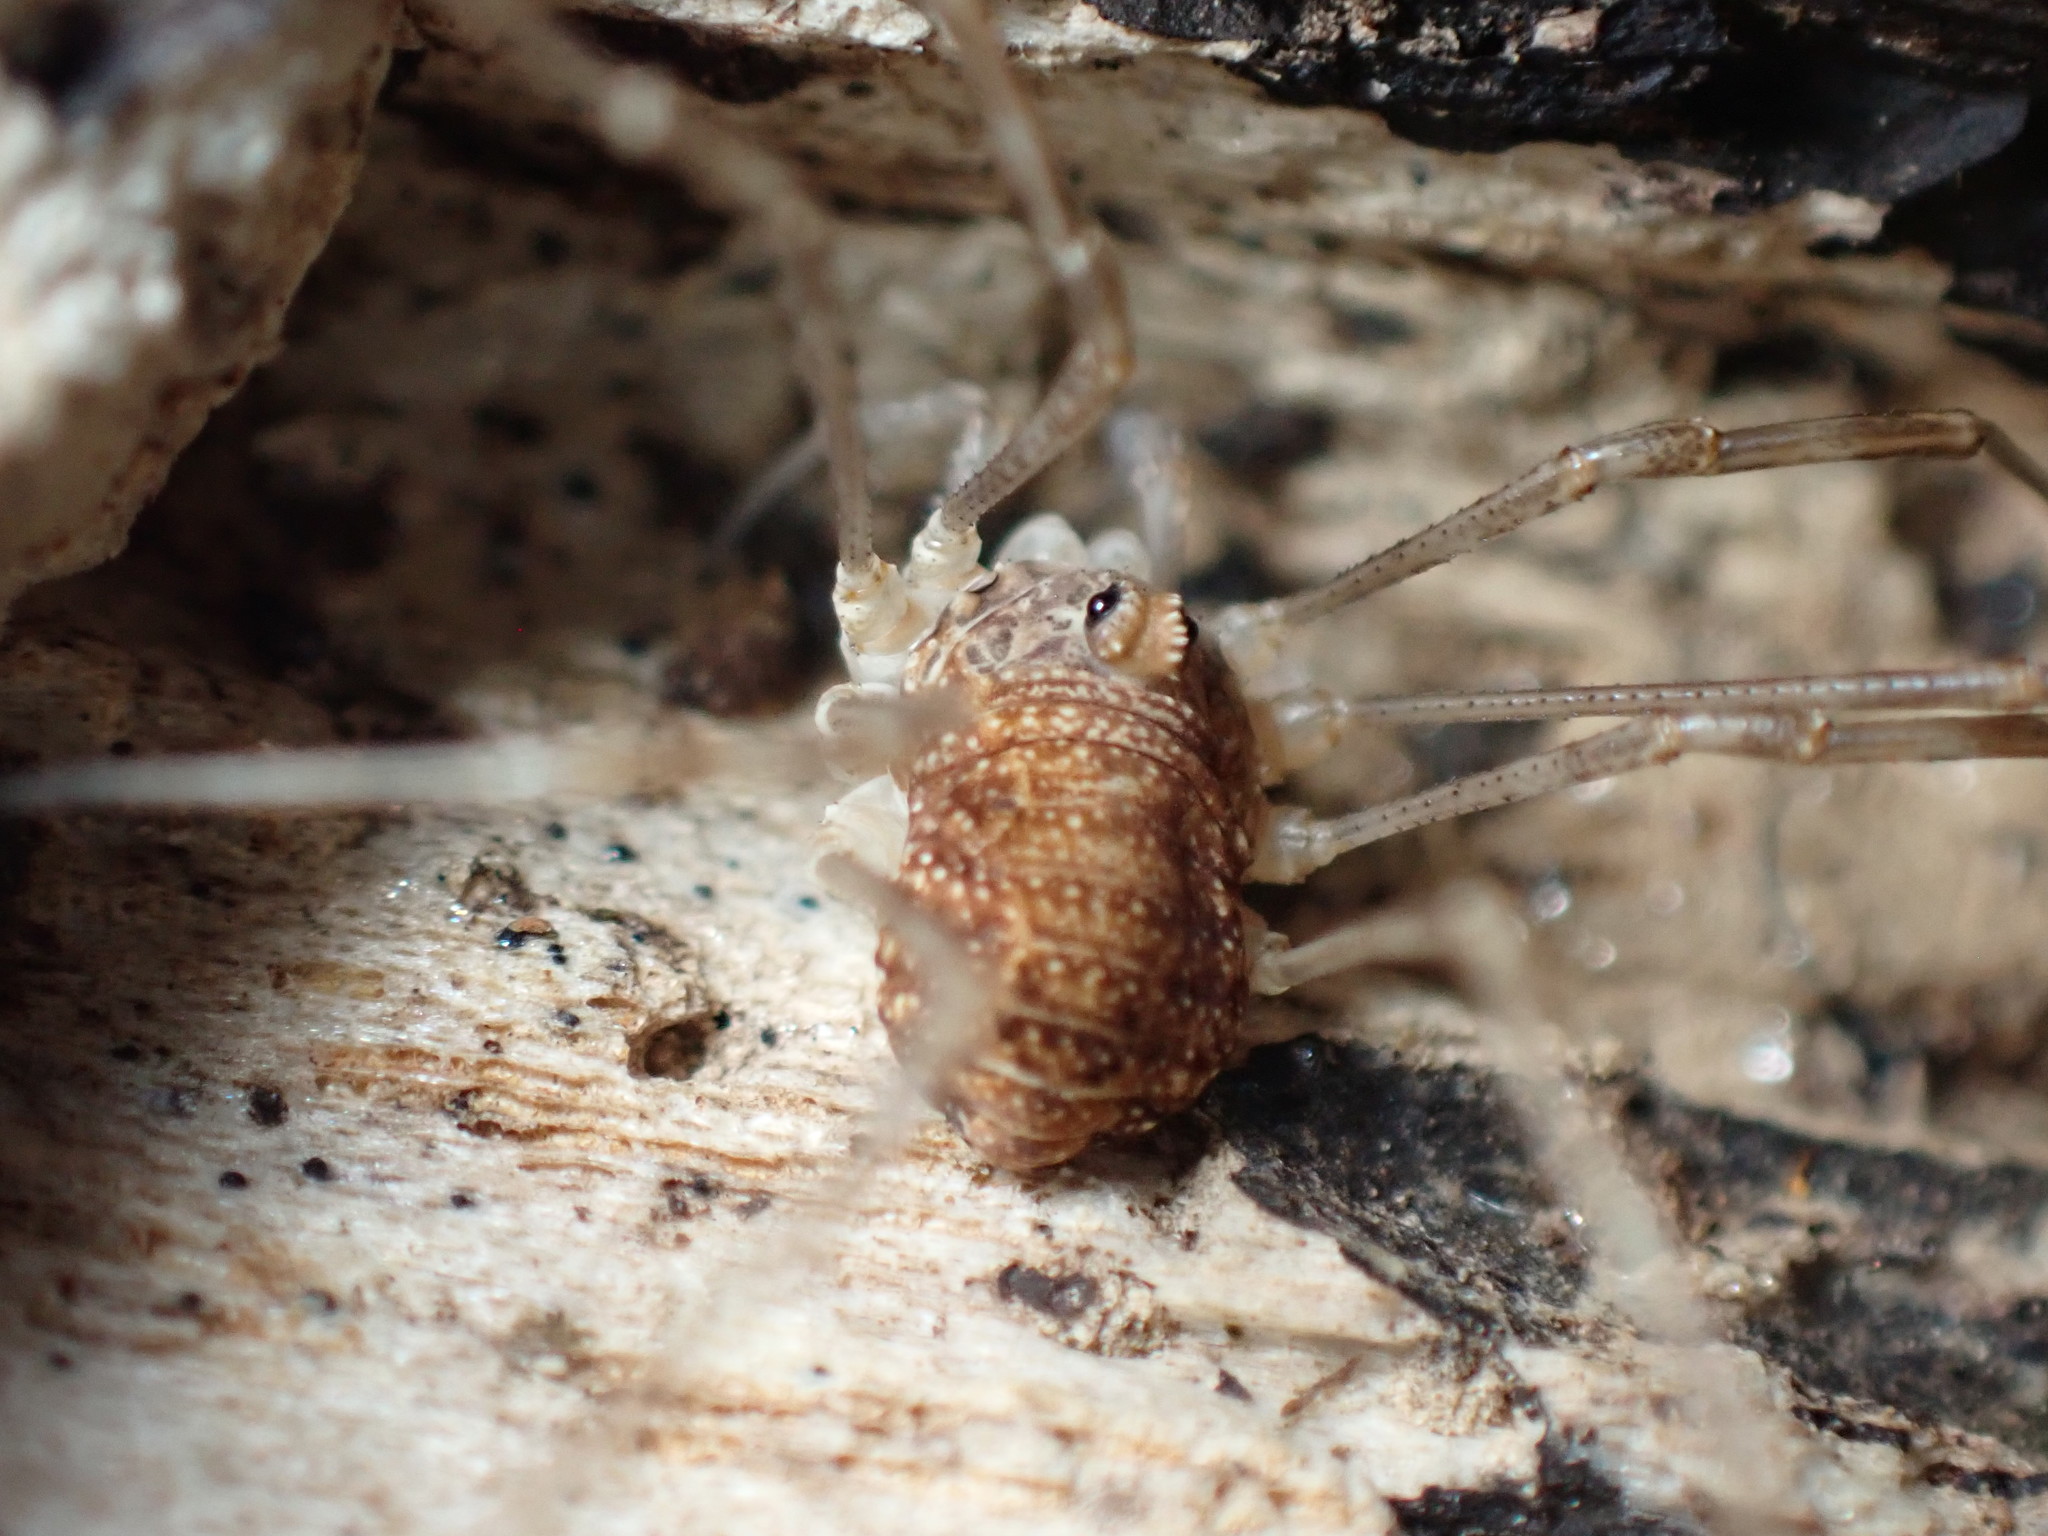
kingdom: Animalia
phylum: Arthropoda
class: Arachnida
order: Opiliones
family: Phalangiidae
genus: Rilaena
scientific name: Rilaena triangularis
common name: Spring harvestman
